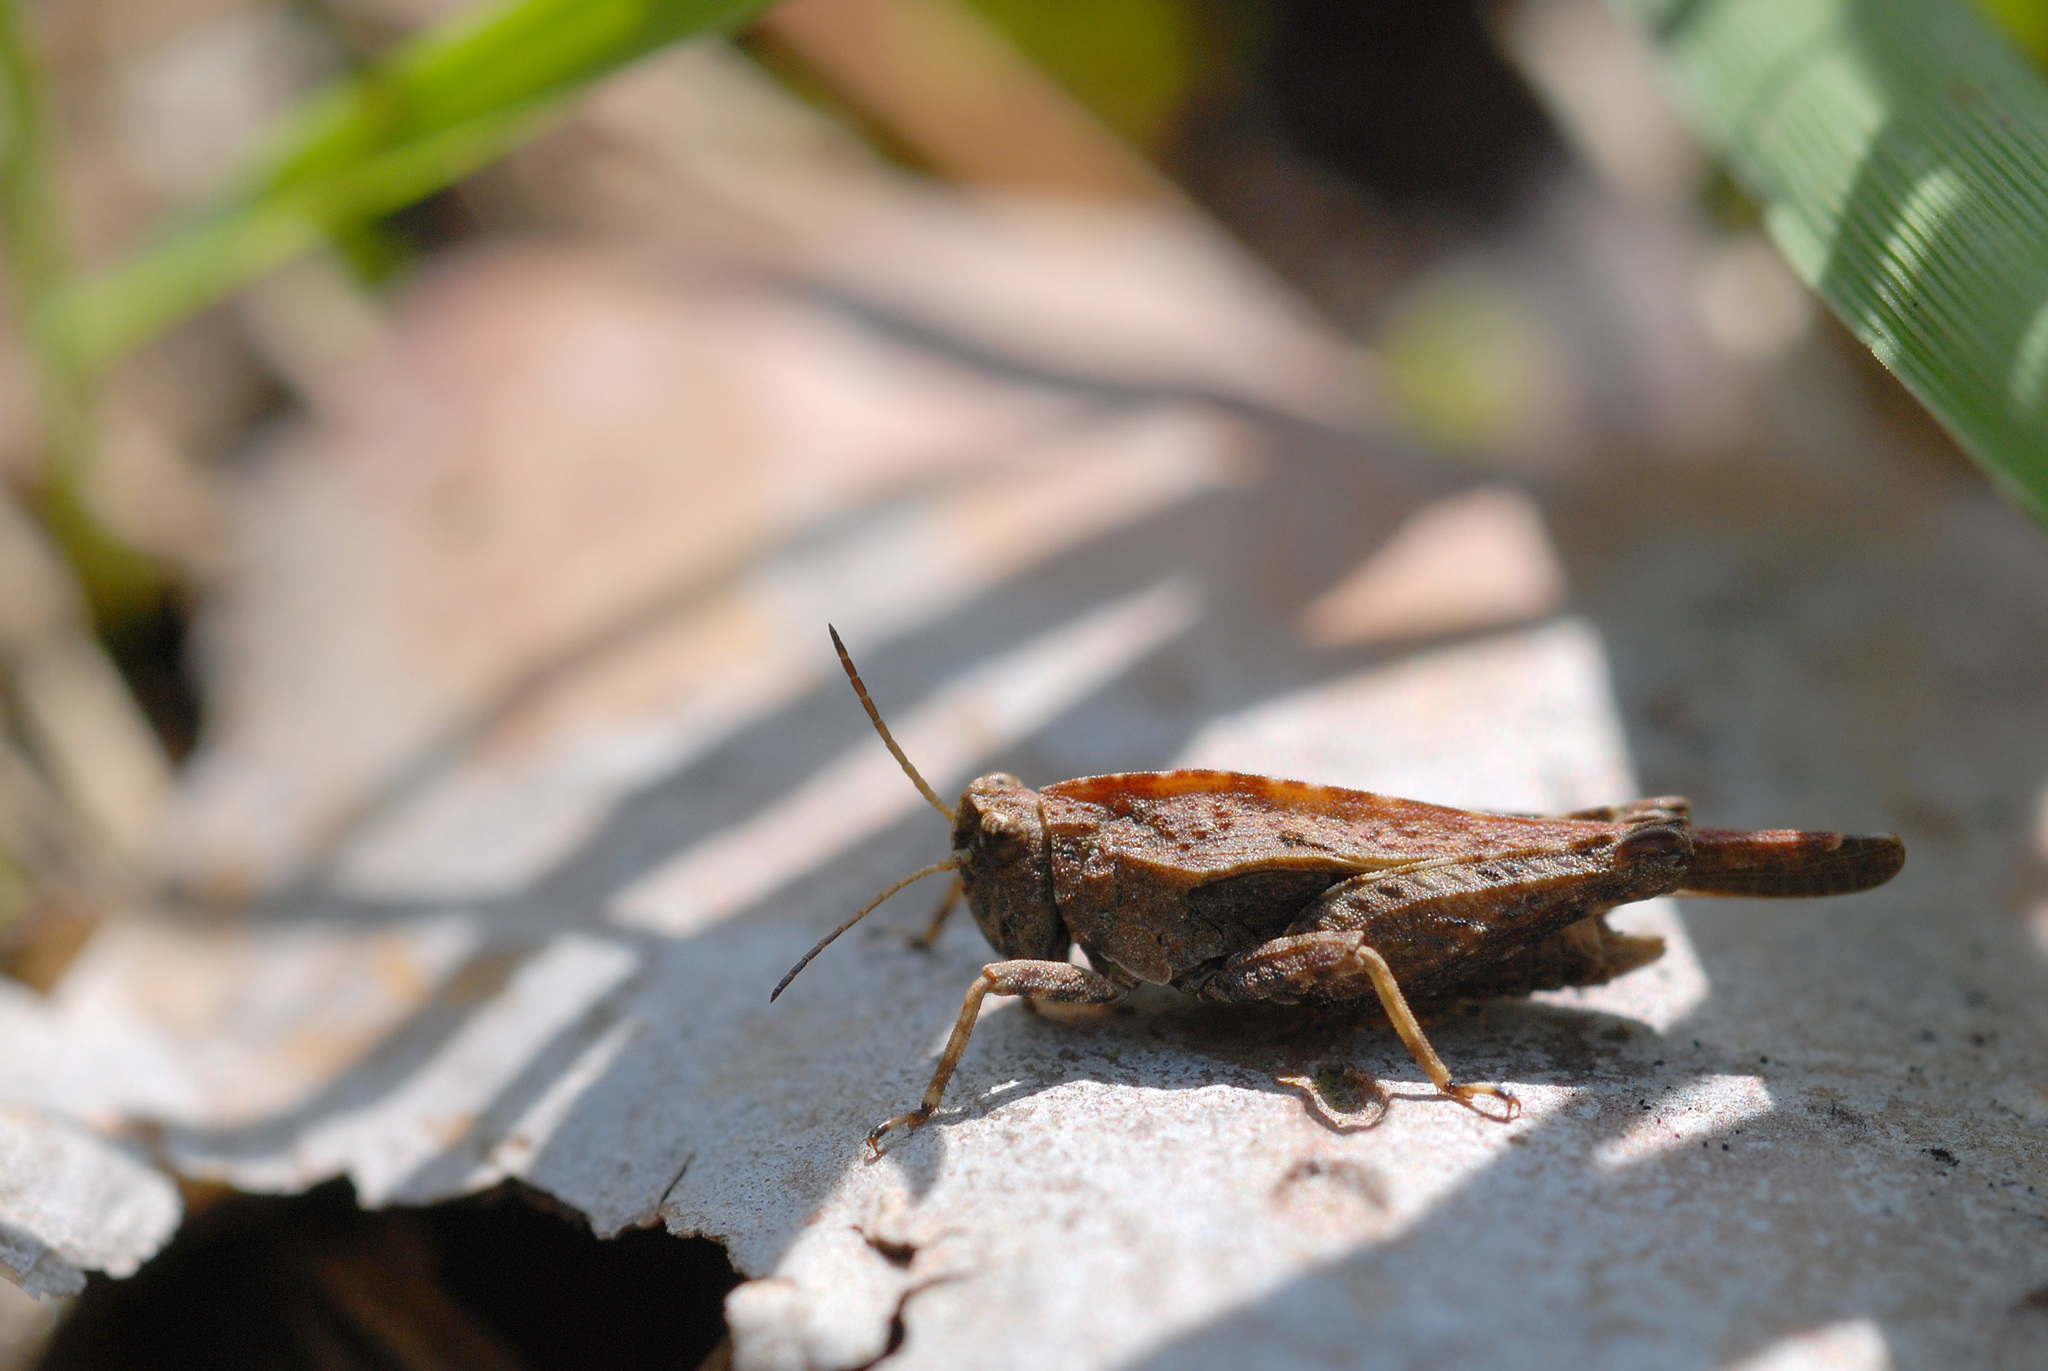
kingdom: Animalia
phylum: Arthropoda
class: Insecta
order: Orthoptera
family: Tetrigidae
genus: Tetrix
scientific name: Tetrix undulata
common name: Common groundhopper
